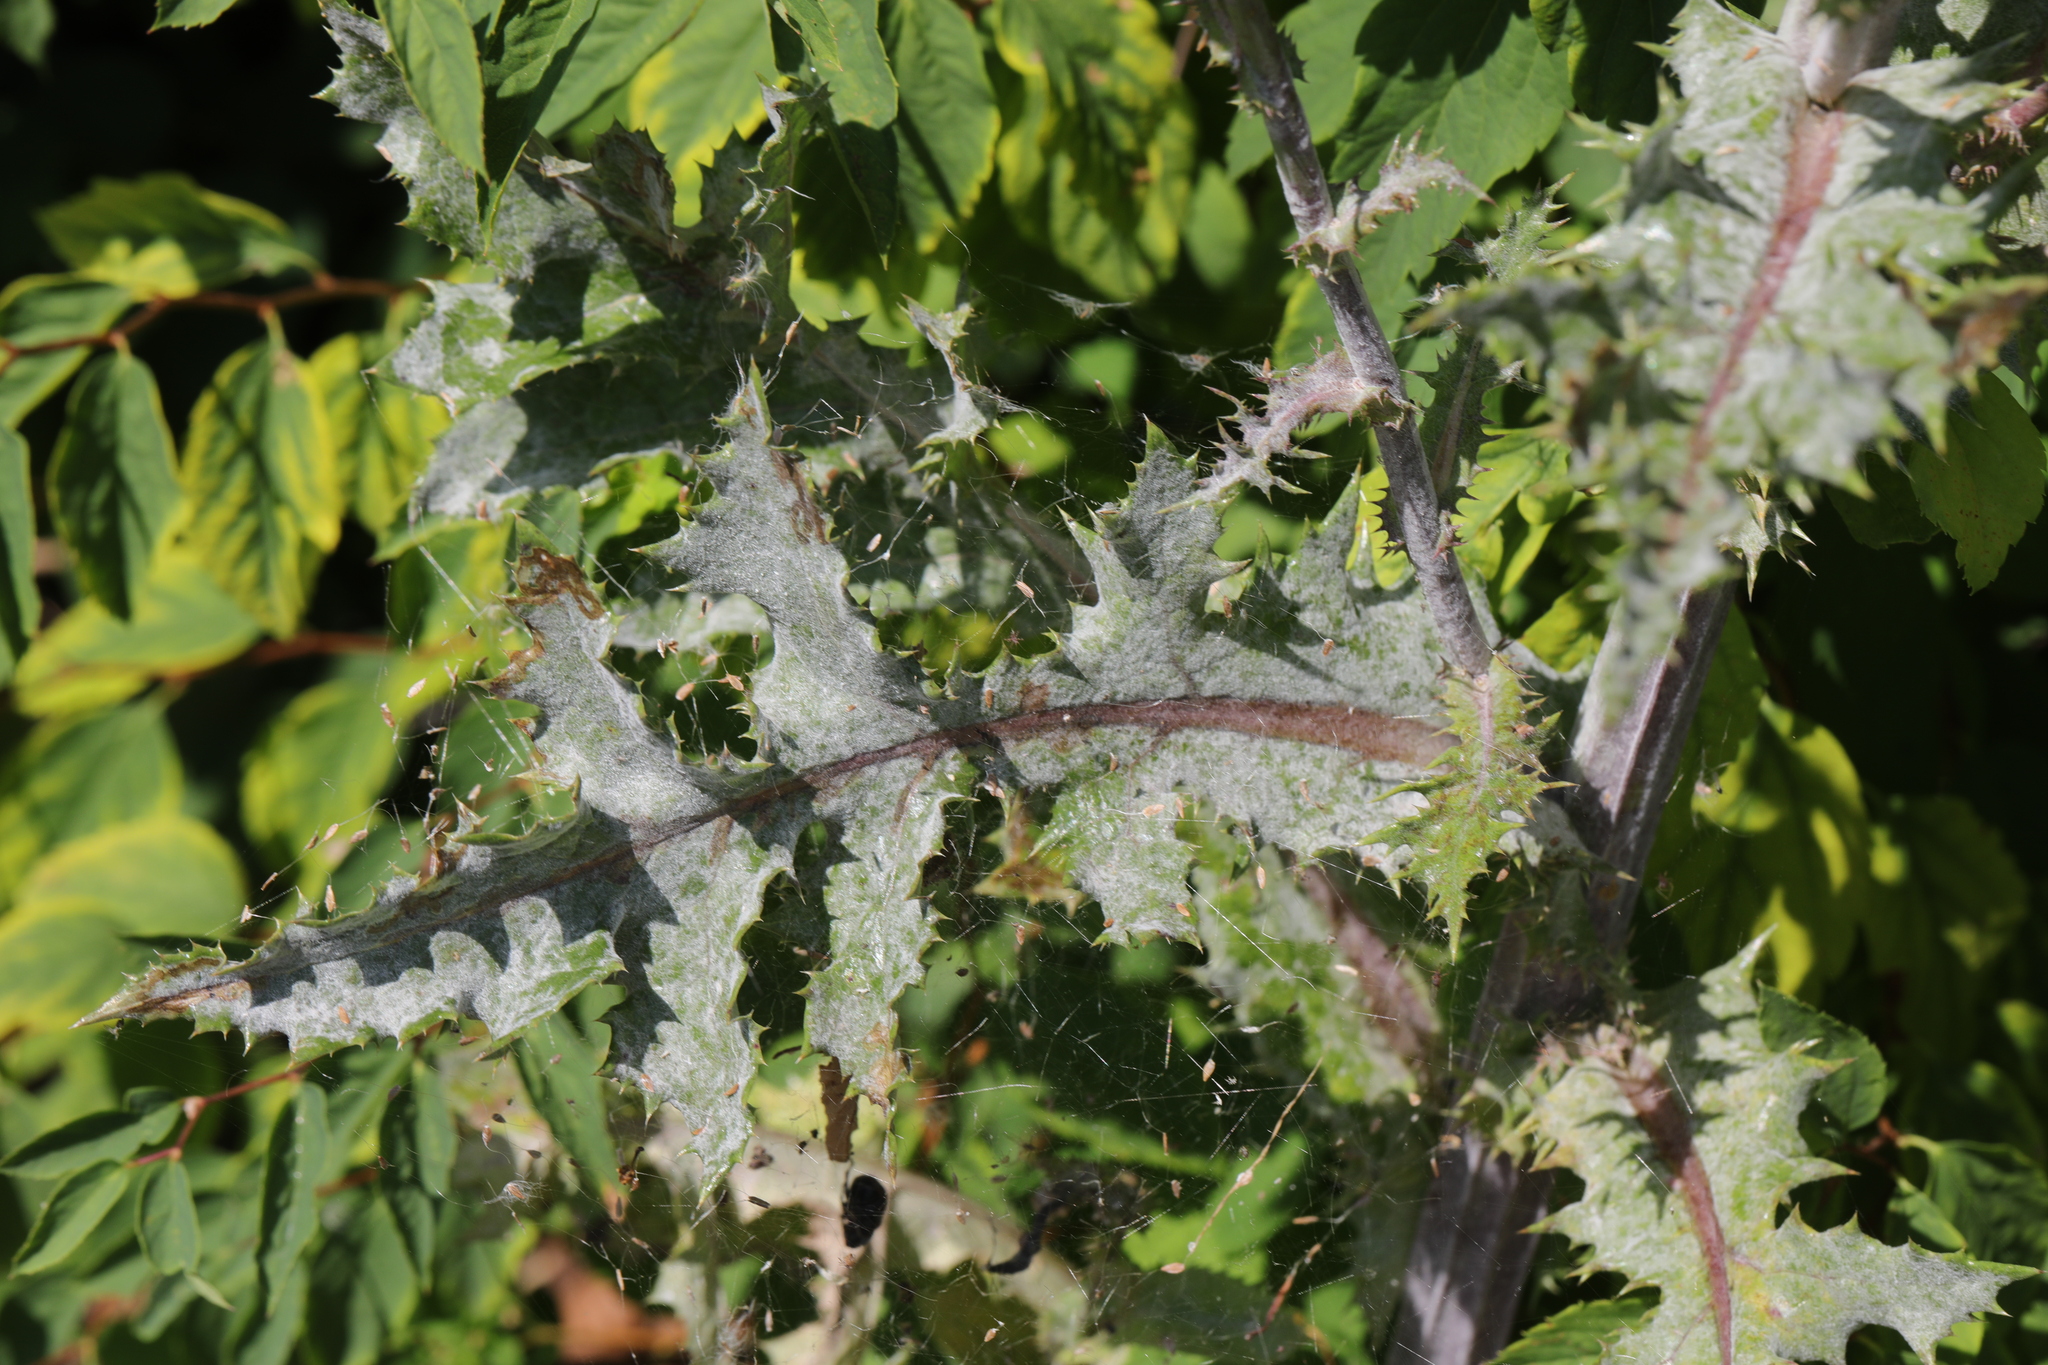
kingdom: Fungi
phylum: Ascomycota
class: Leotiomycetes
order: Helotiales
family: Erysiphaceae
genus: Golovinomyces
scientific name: Golovinomyces sonchicola
